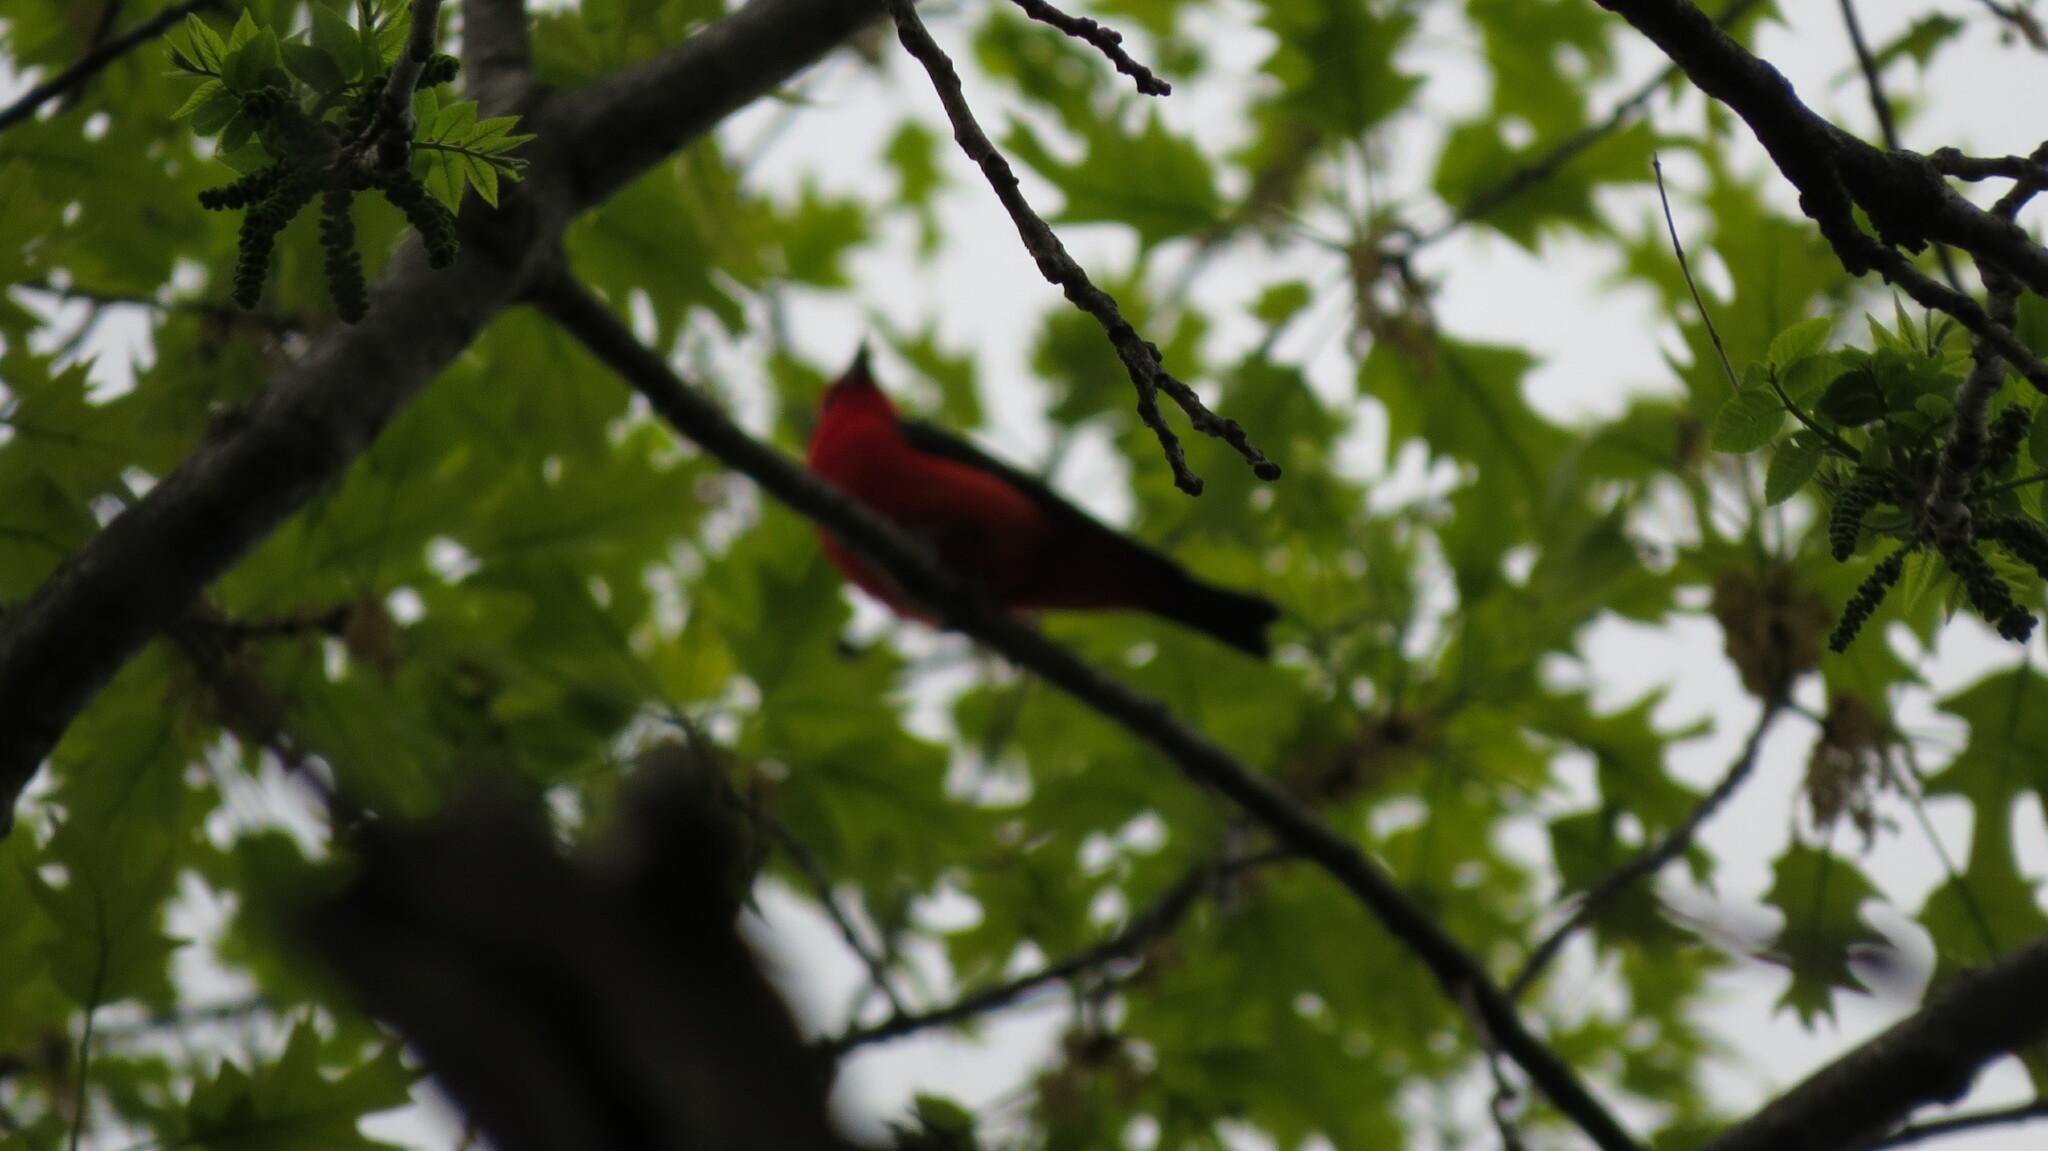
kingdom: Animalia
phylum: Chordata
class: Aves
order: Passeriformes
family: Cardinalidae
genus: Piranga
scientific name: Piranga olivacea
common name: Scarlet tanager
